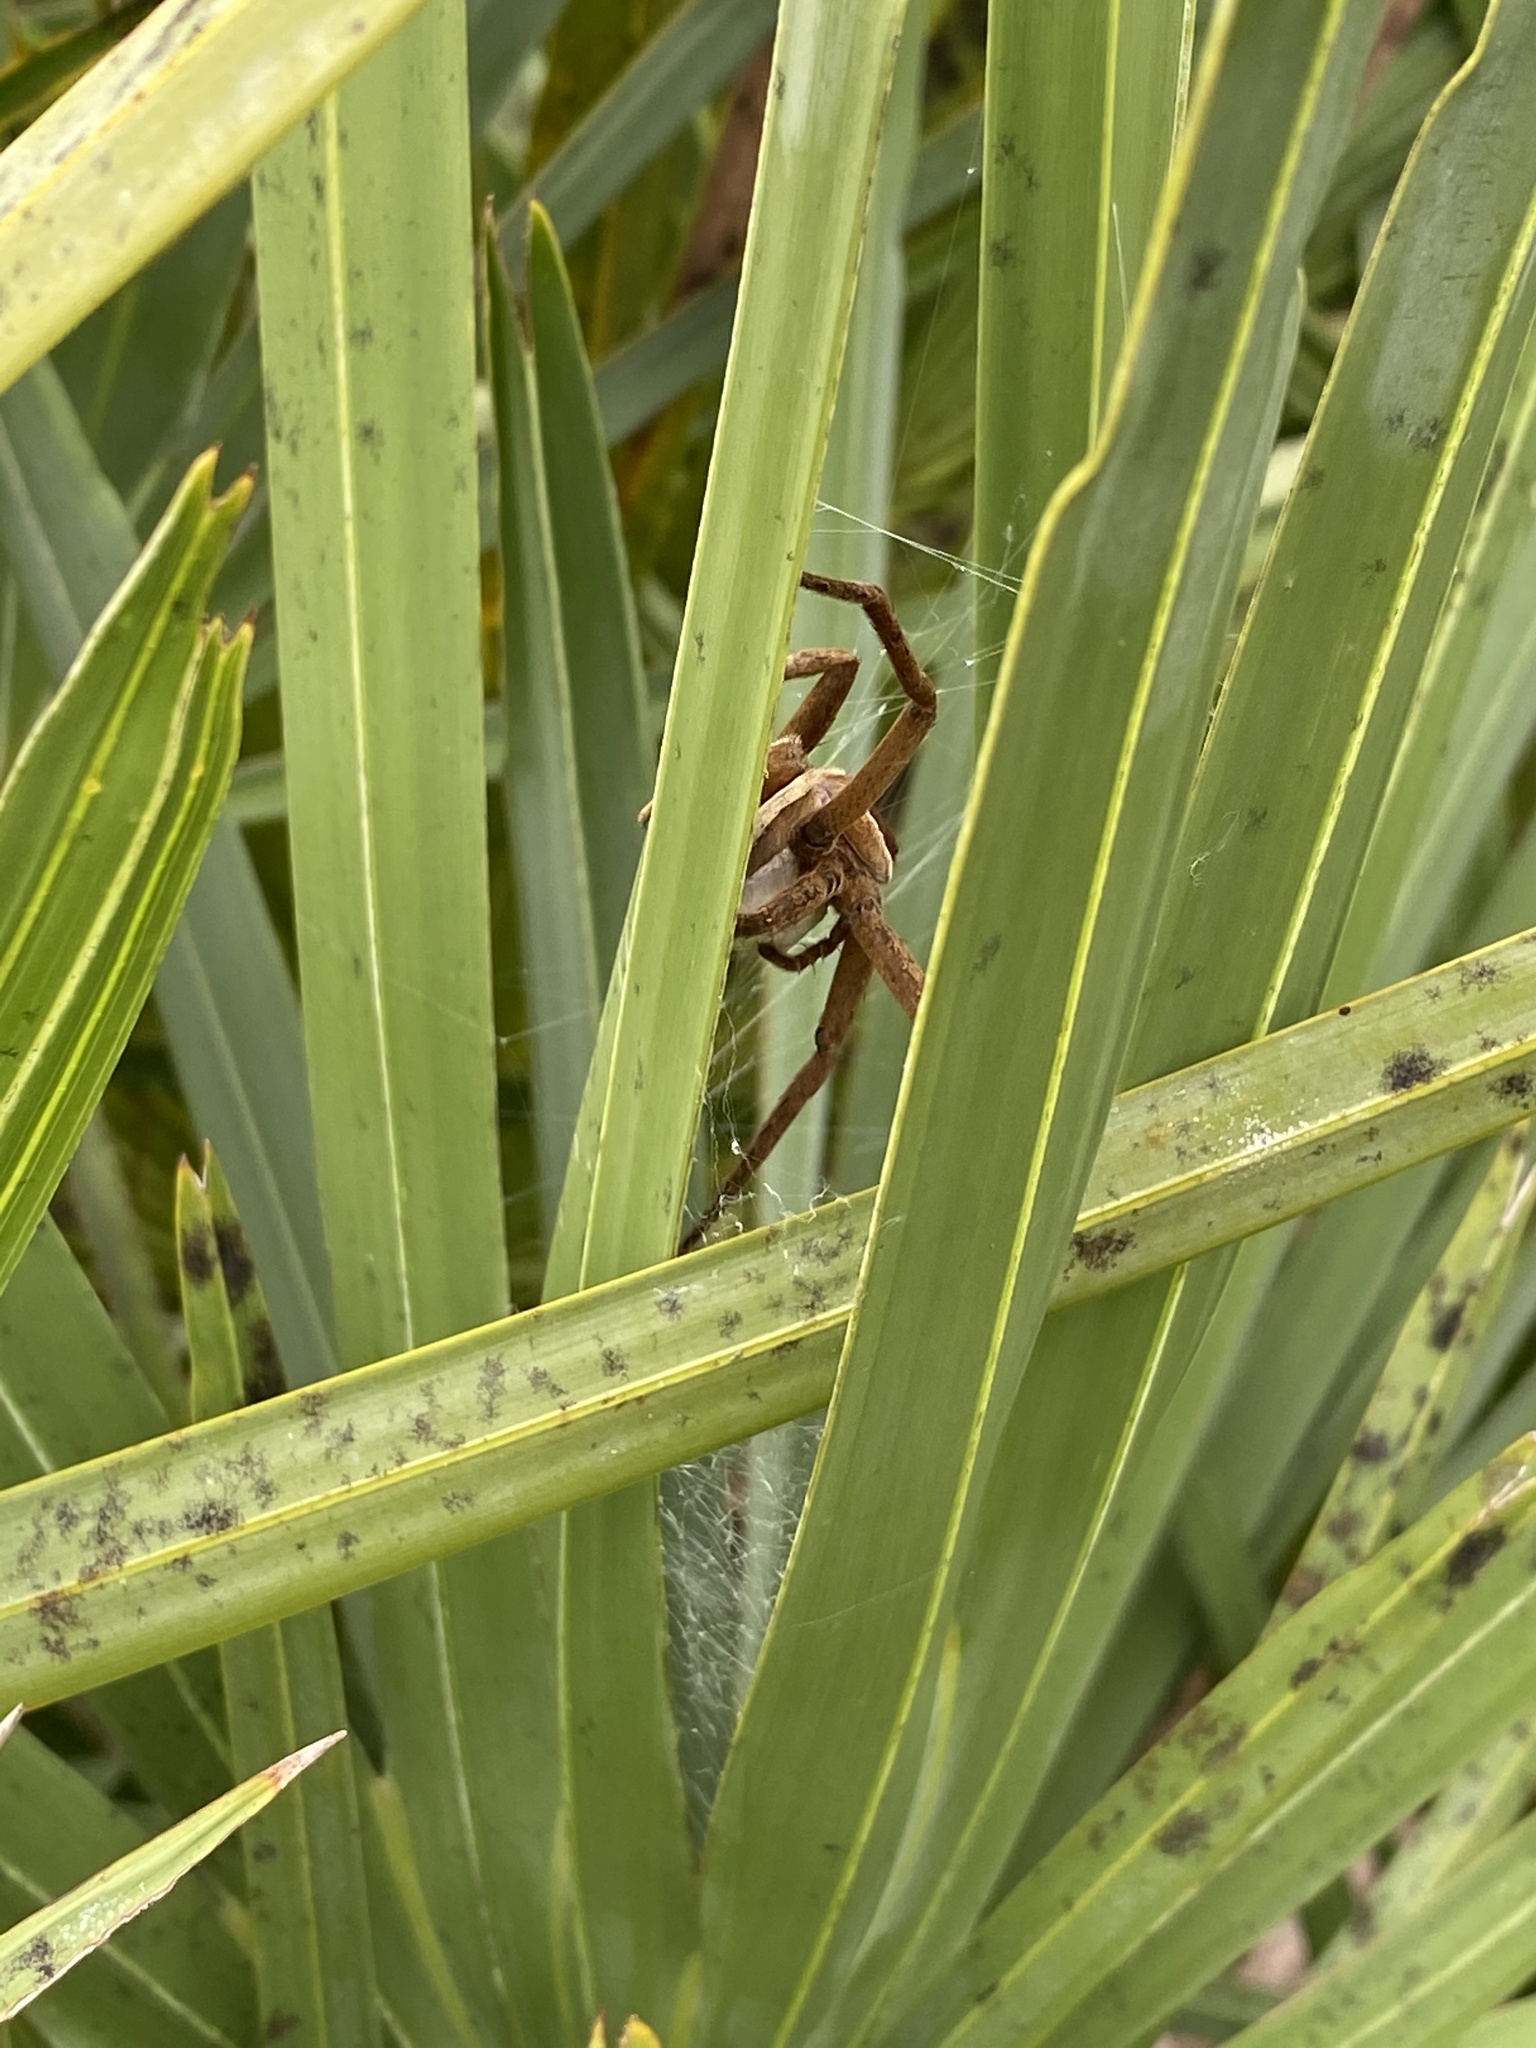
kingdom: Animalia
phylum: Arthropoda
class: Arachnida
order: Araneae
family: Pisauridae
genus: Pisaurina
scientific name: Pisaurina brevipes
